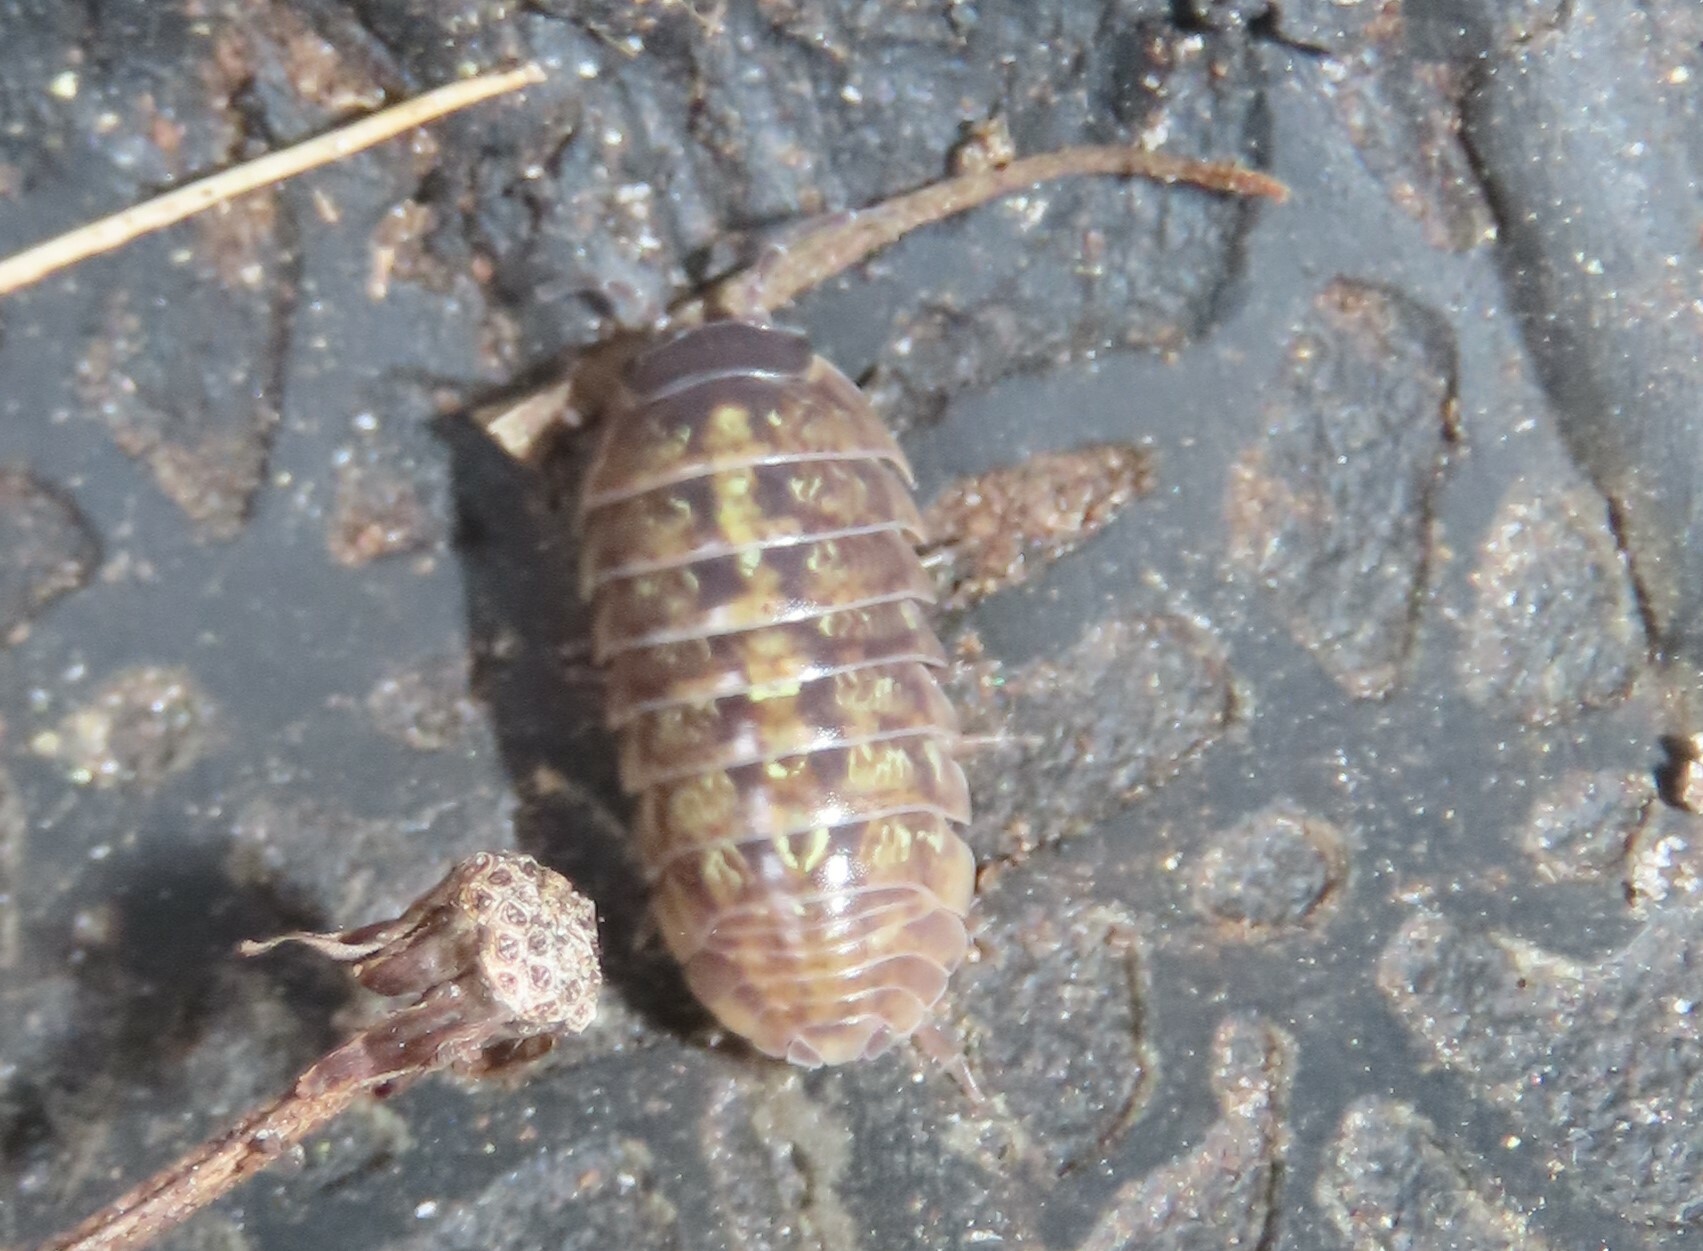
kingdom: Animalia
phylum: Arthropoda
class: Malacostraca
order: Isopoda
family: Armadillidiidae
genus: Armadillidium
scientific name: Armadillidium vulgare
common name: Common pill woodlouse
